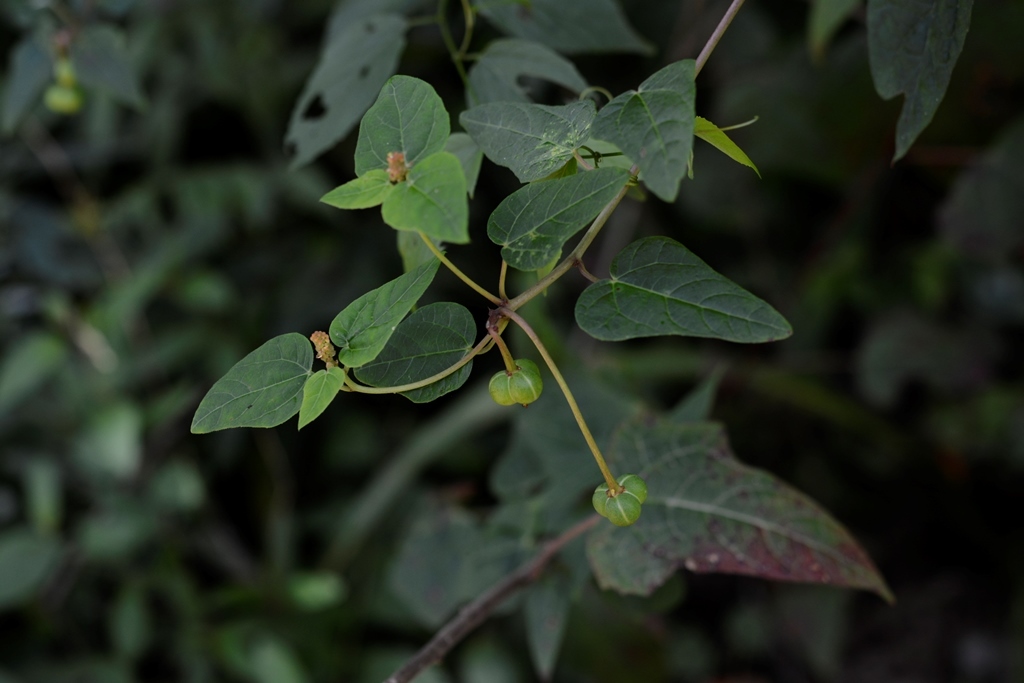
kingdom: Plantae
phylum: Tracheophyta
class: Magnoliopsida
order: Malpighiales
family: Euphorbiaceae
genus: Dalembertia
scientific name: Dalembertia triangularis
